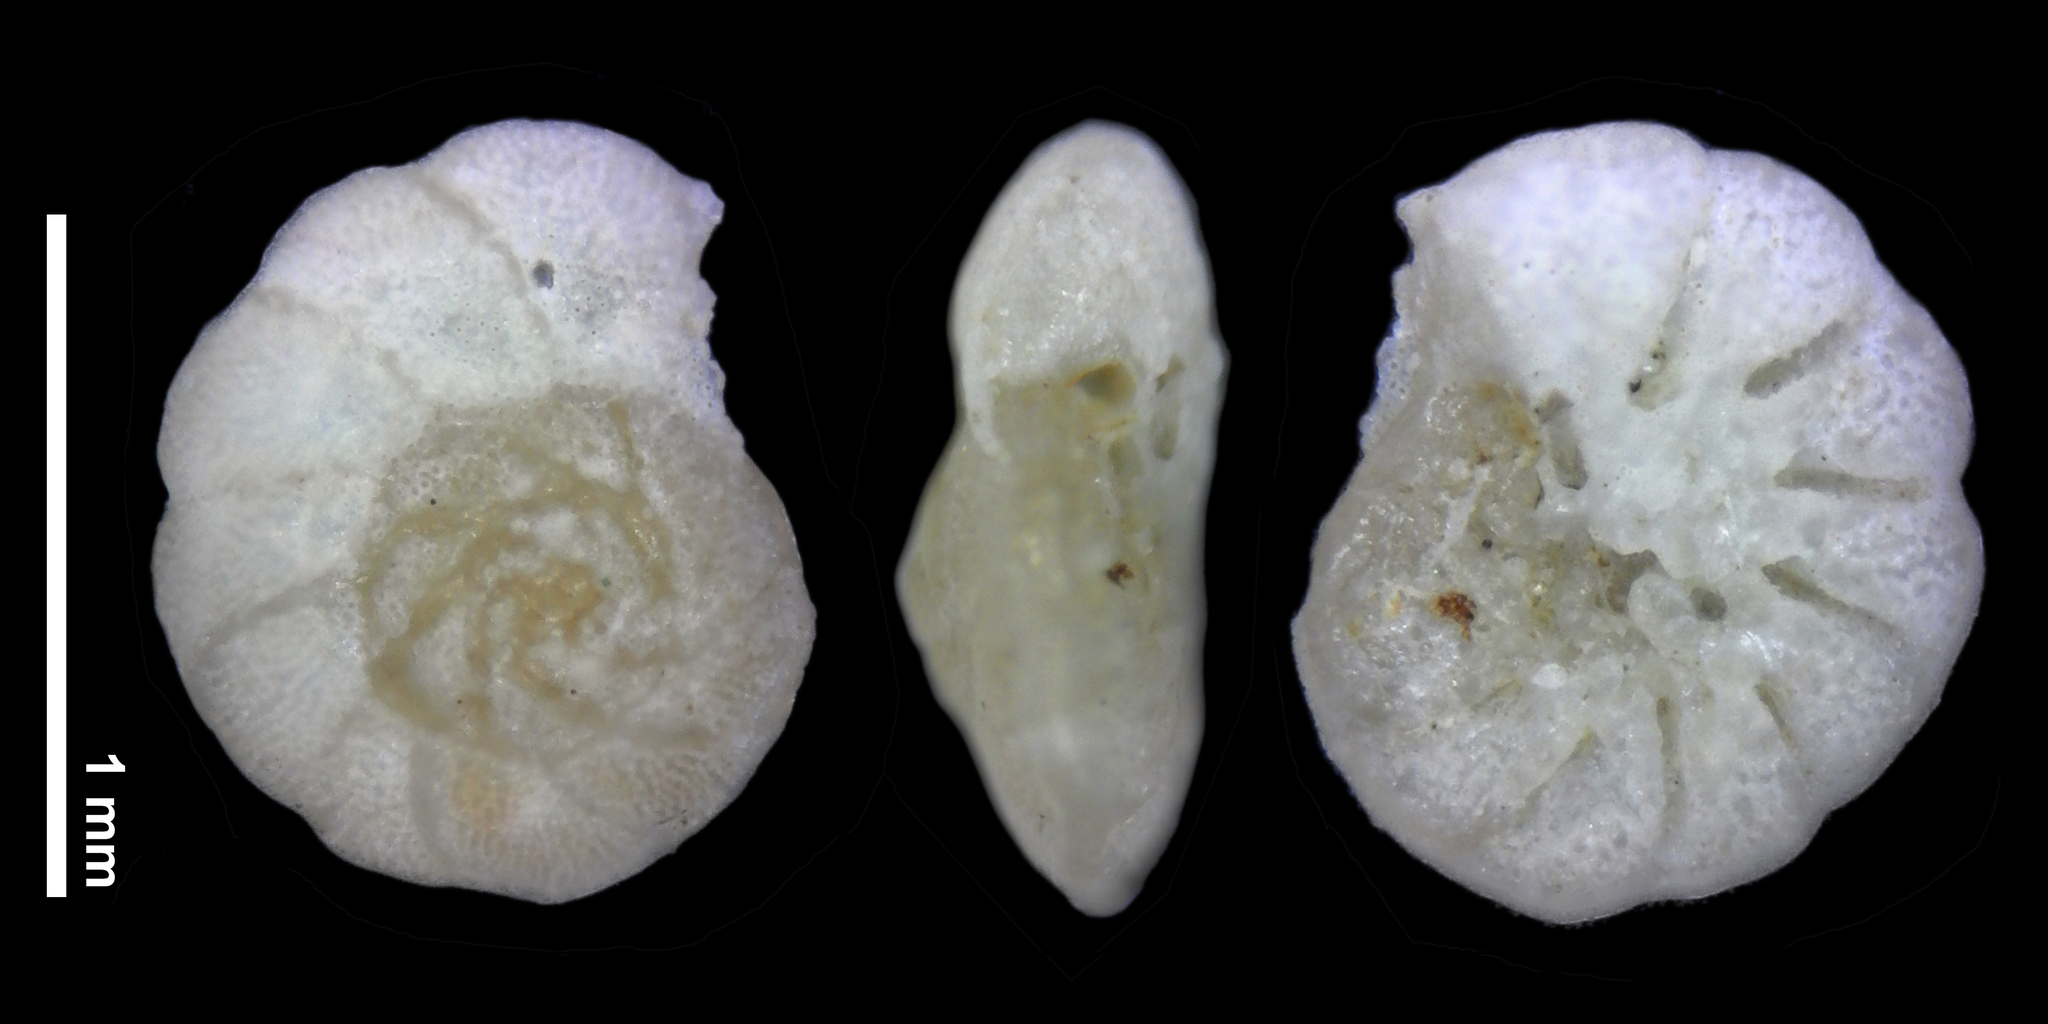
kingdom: Chromista
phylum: Foraminifera
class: Globothalamea
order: Rotaliida
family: Discorbidae
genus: Lamellodiscorbis
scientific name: Lamellodiscorbis dimidiatus
